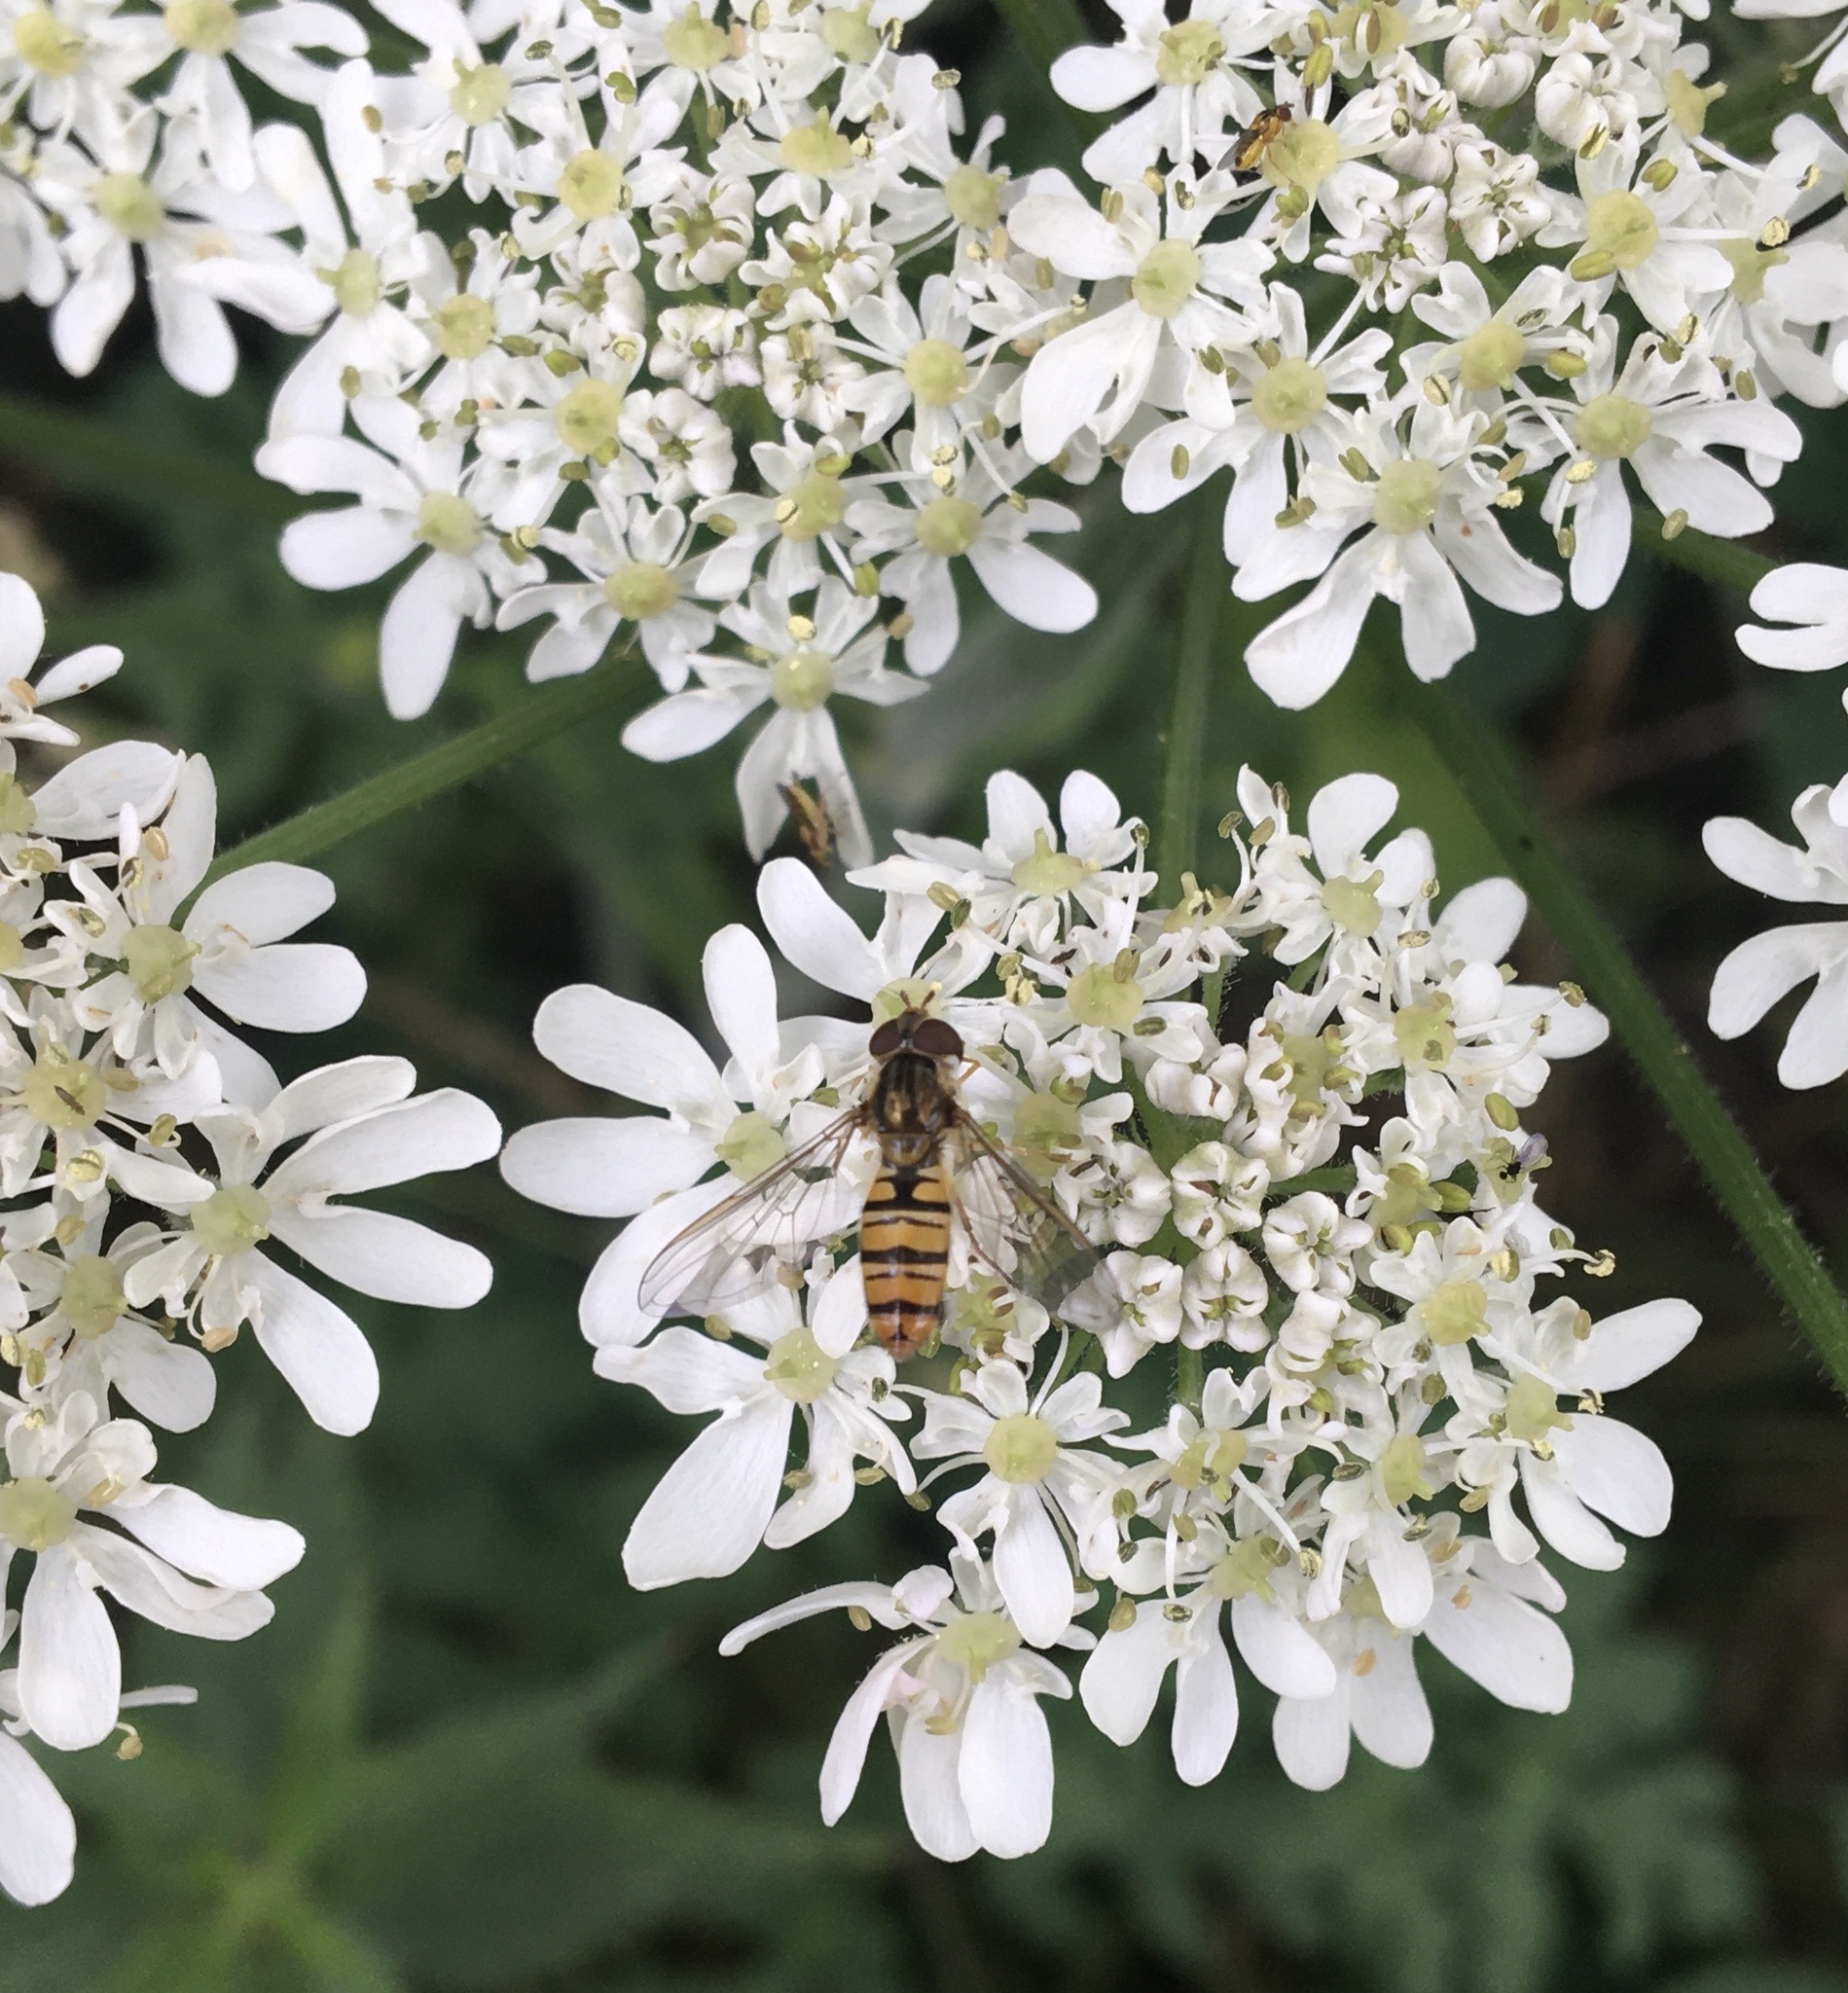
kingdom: Animalia
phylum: Arthropoda
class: Insecta
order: Diptera
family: Syrphidae
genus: Episyrphus
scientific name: Episyrphus balteatus
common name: Marmalade hoverfly
